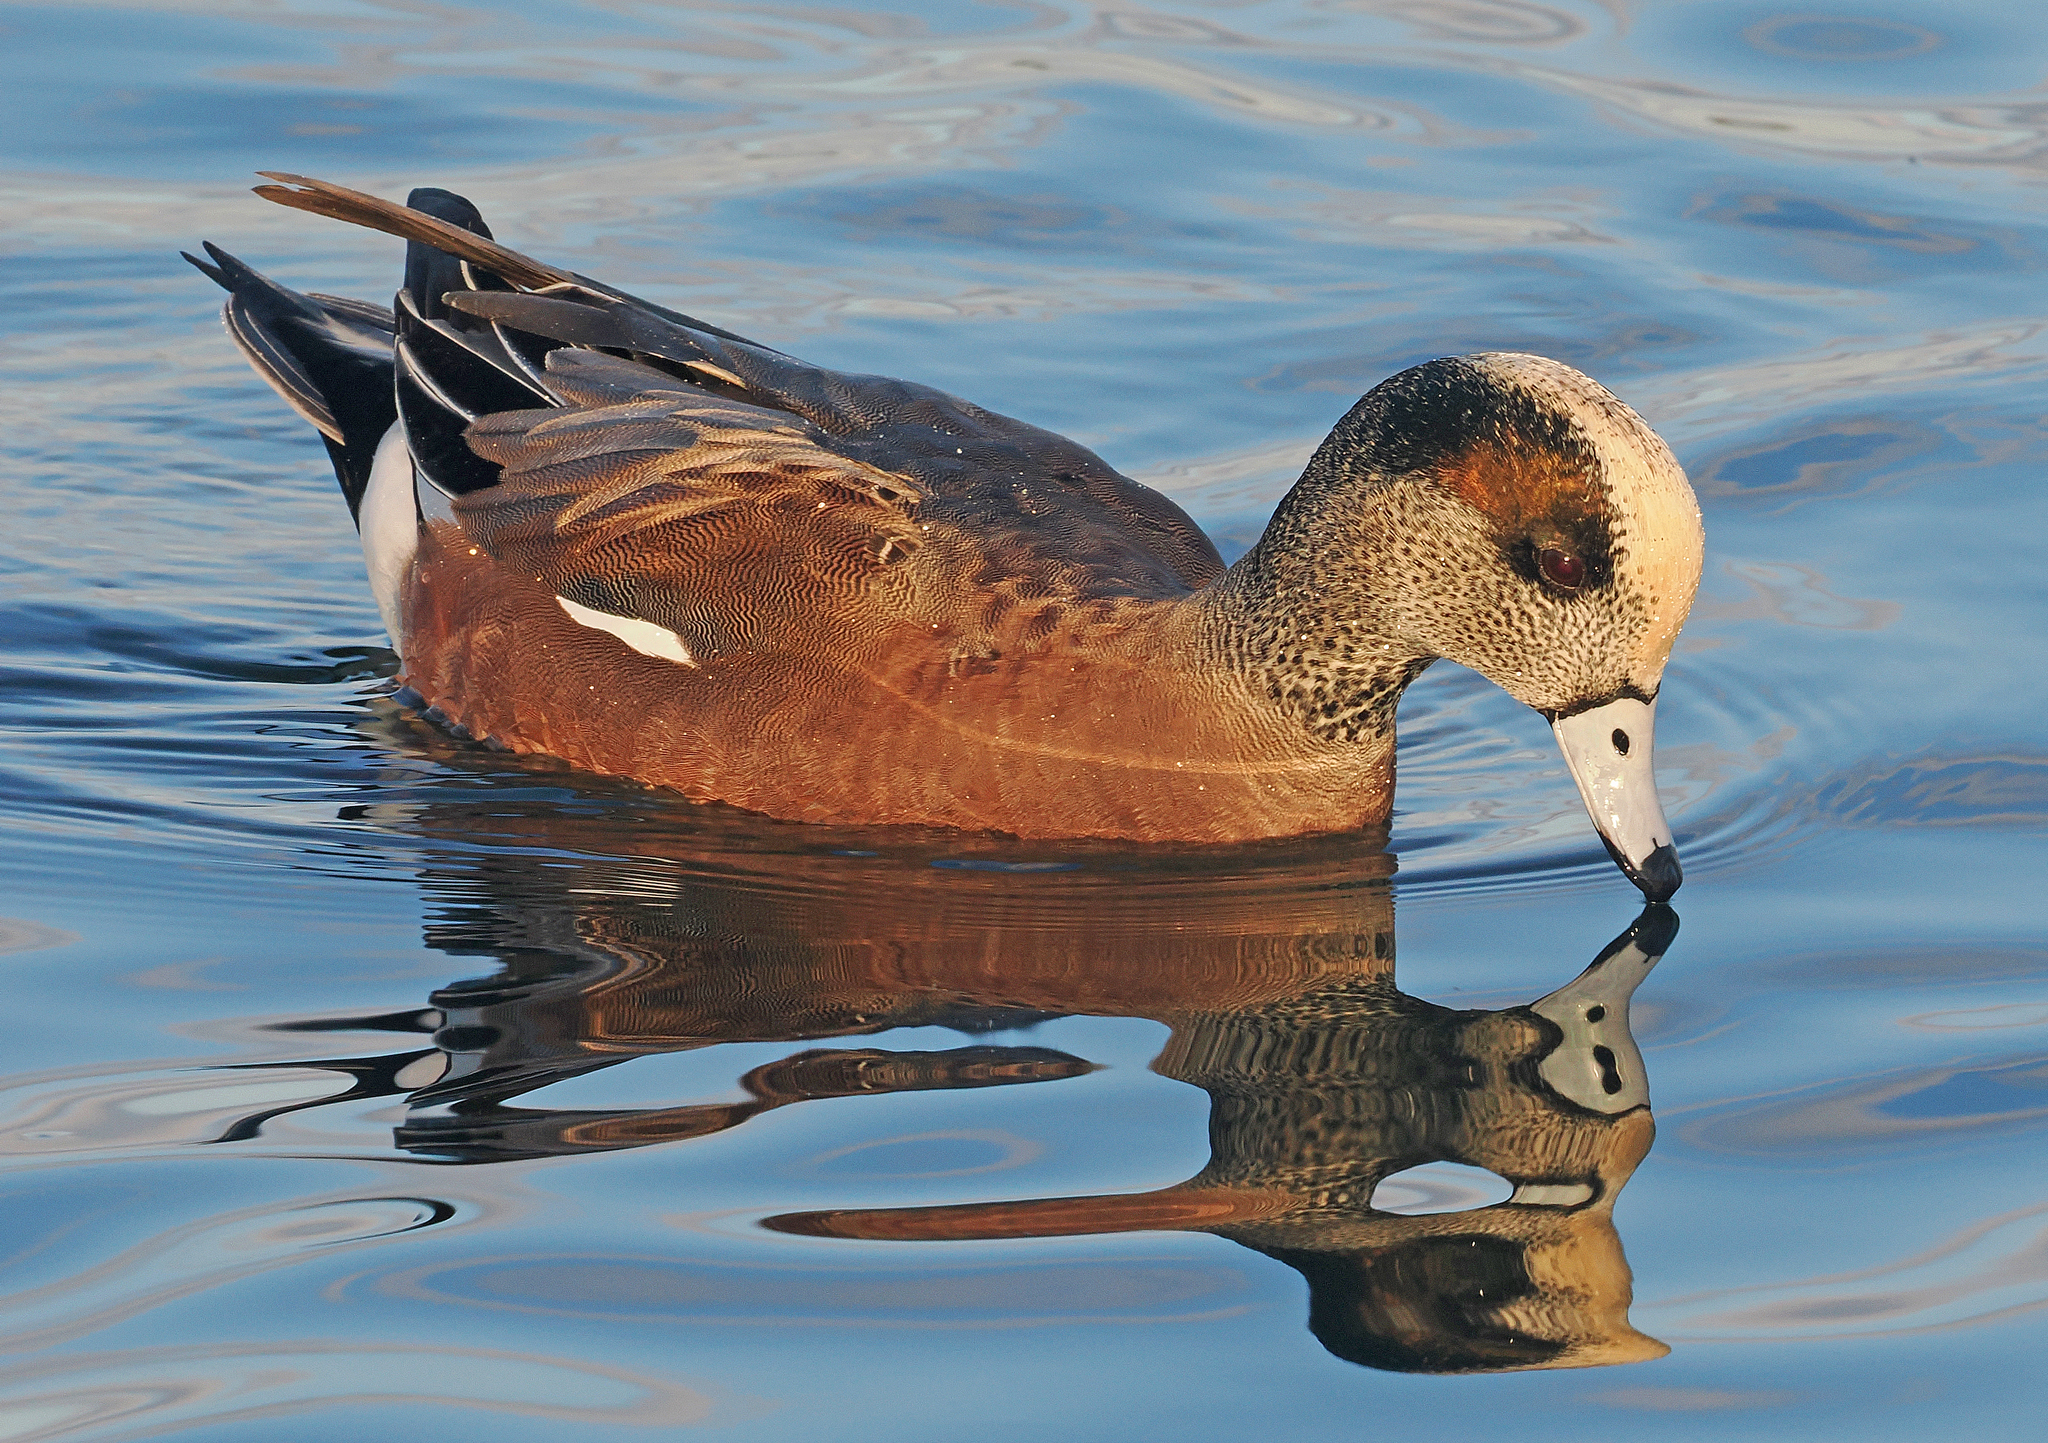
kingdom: Animalia
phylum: Chordata
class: Aves
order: Anseriformes
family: Anatidae
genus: Mareca
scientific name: Mareca americana
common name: American wigeon
